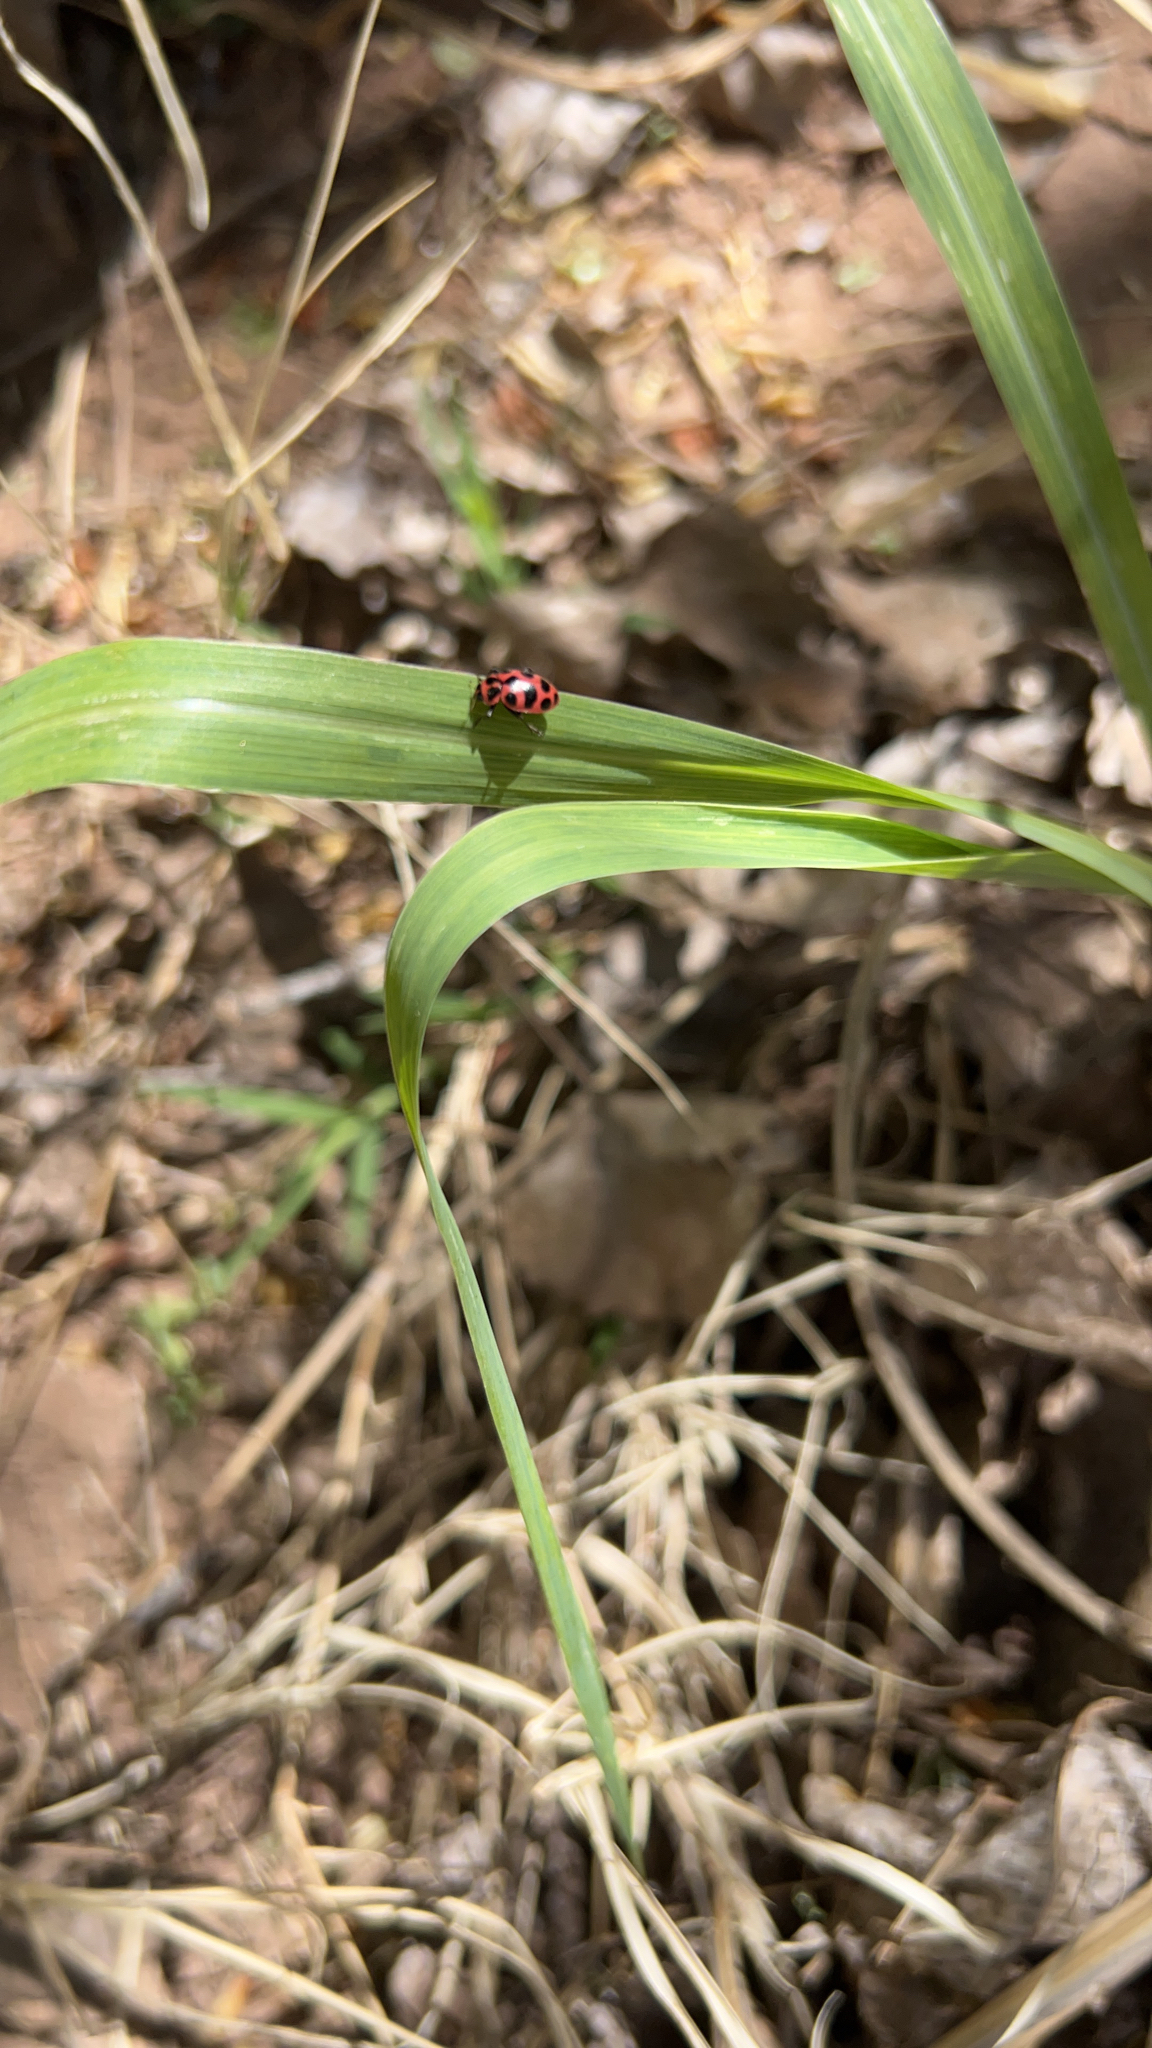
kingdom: Animalia
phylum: Arthropoda
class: Insecta
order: Coleoptera
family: Coccinellidae
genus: Coleomegilla
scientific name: Coleomegilla maculata
